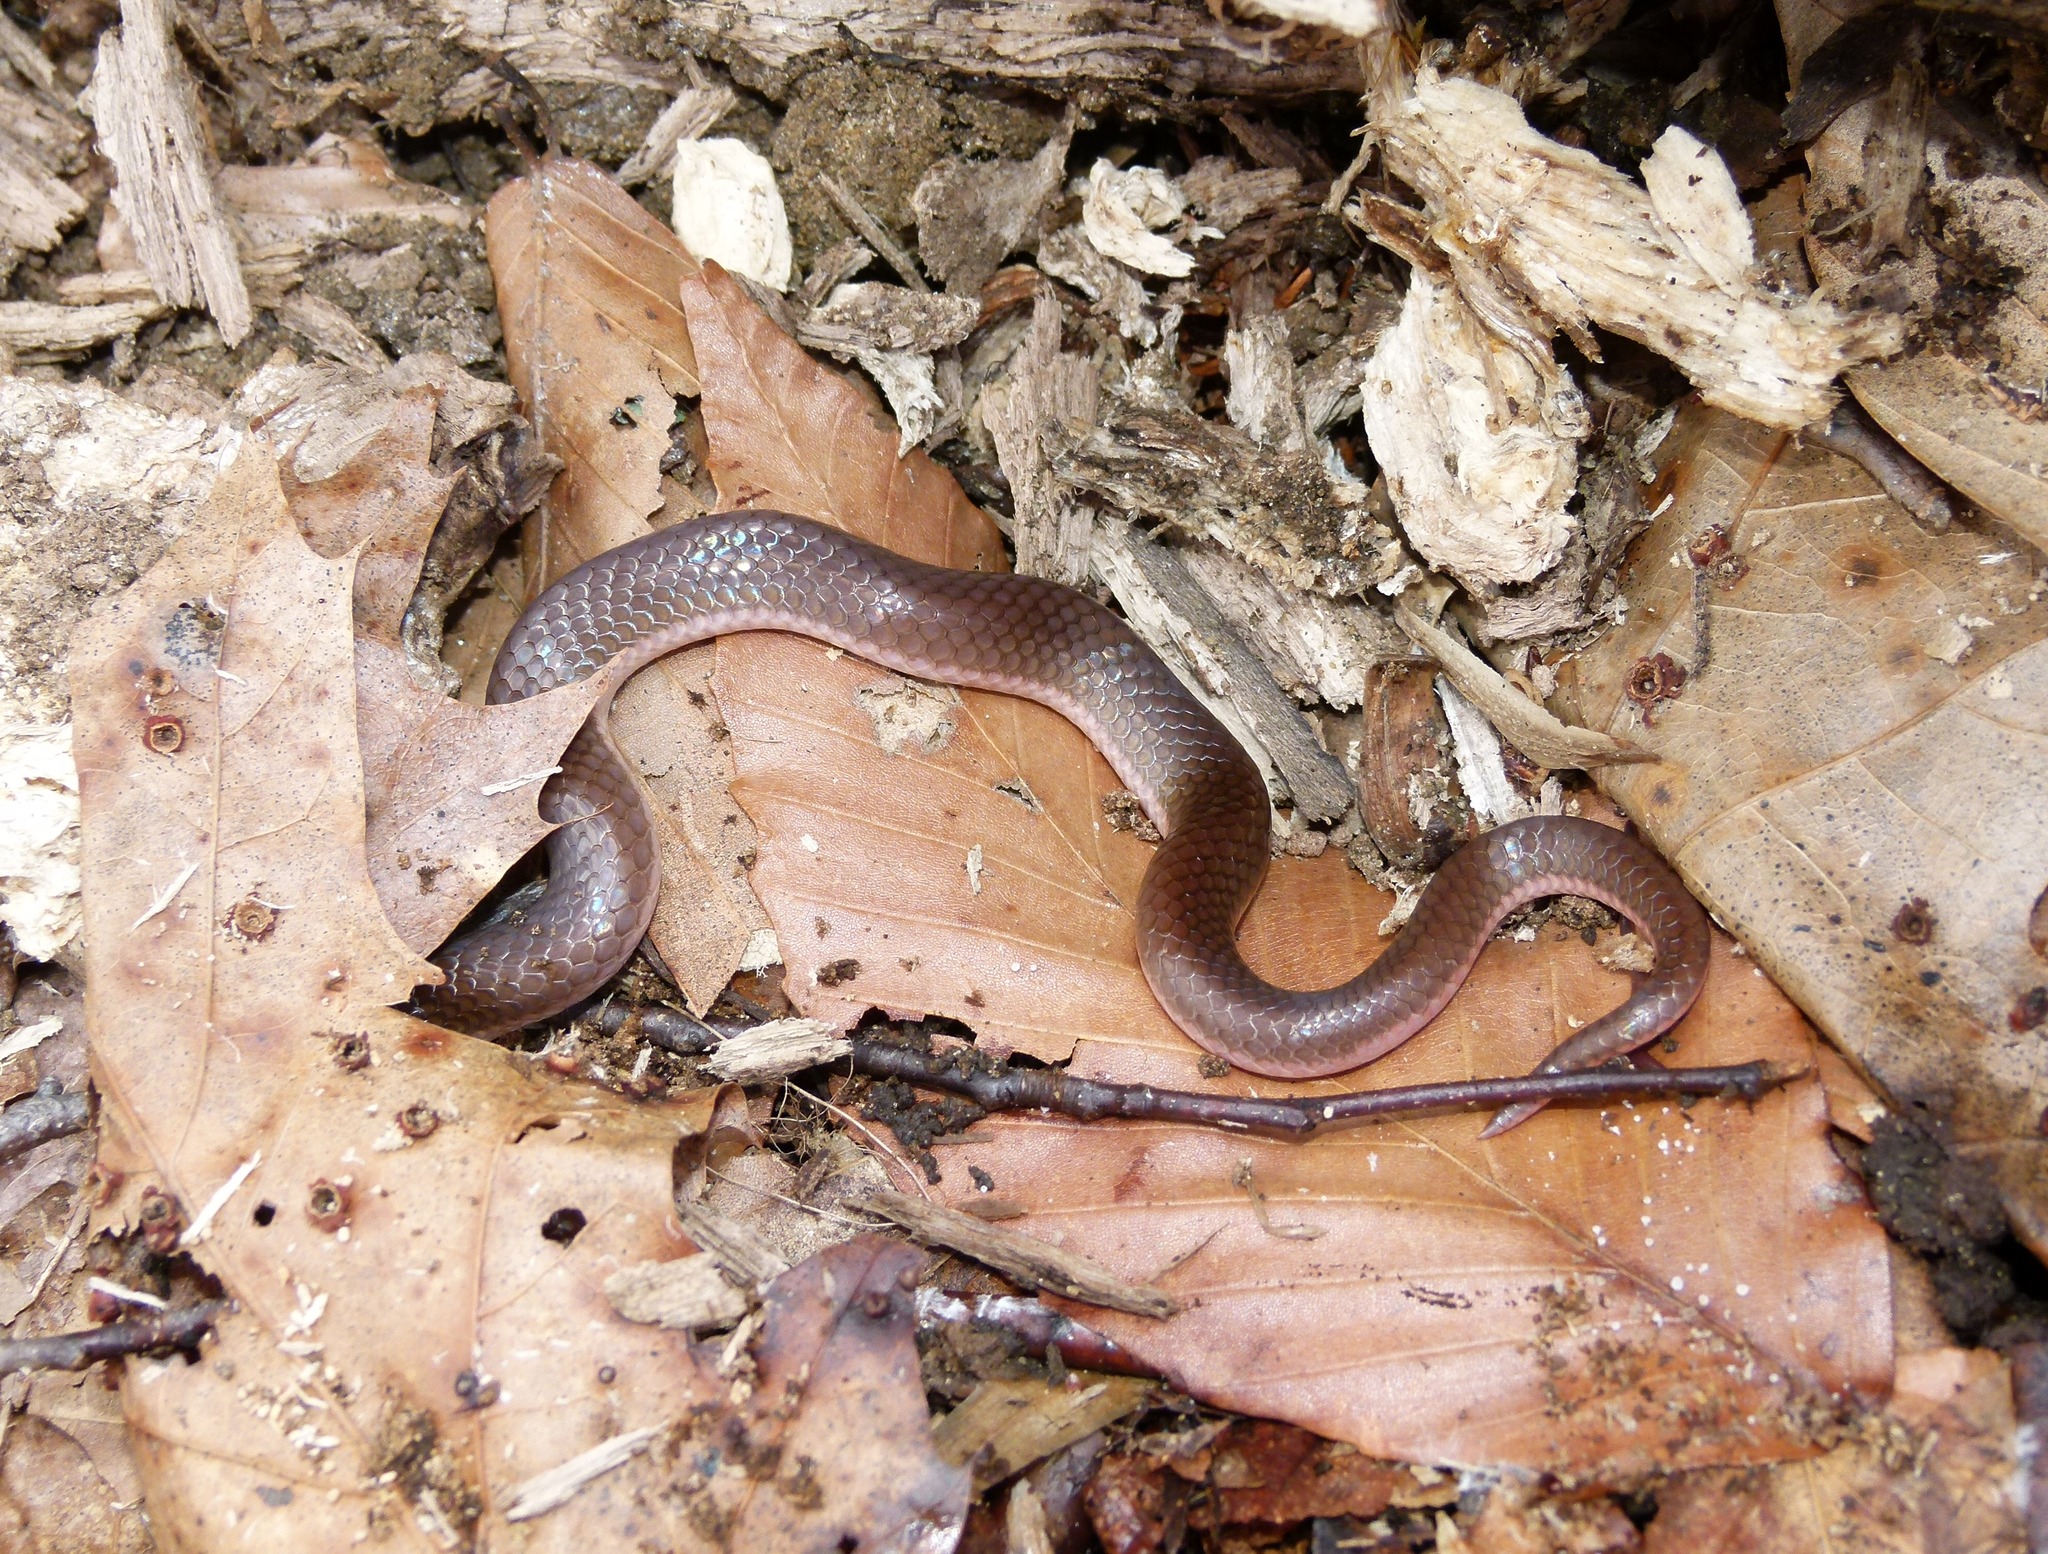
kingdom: Animalia
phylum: Chordata
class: Squamata
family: Colubridae
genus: Carphophis
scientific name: Carphophis amoenus
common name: Eastern worm snake
